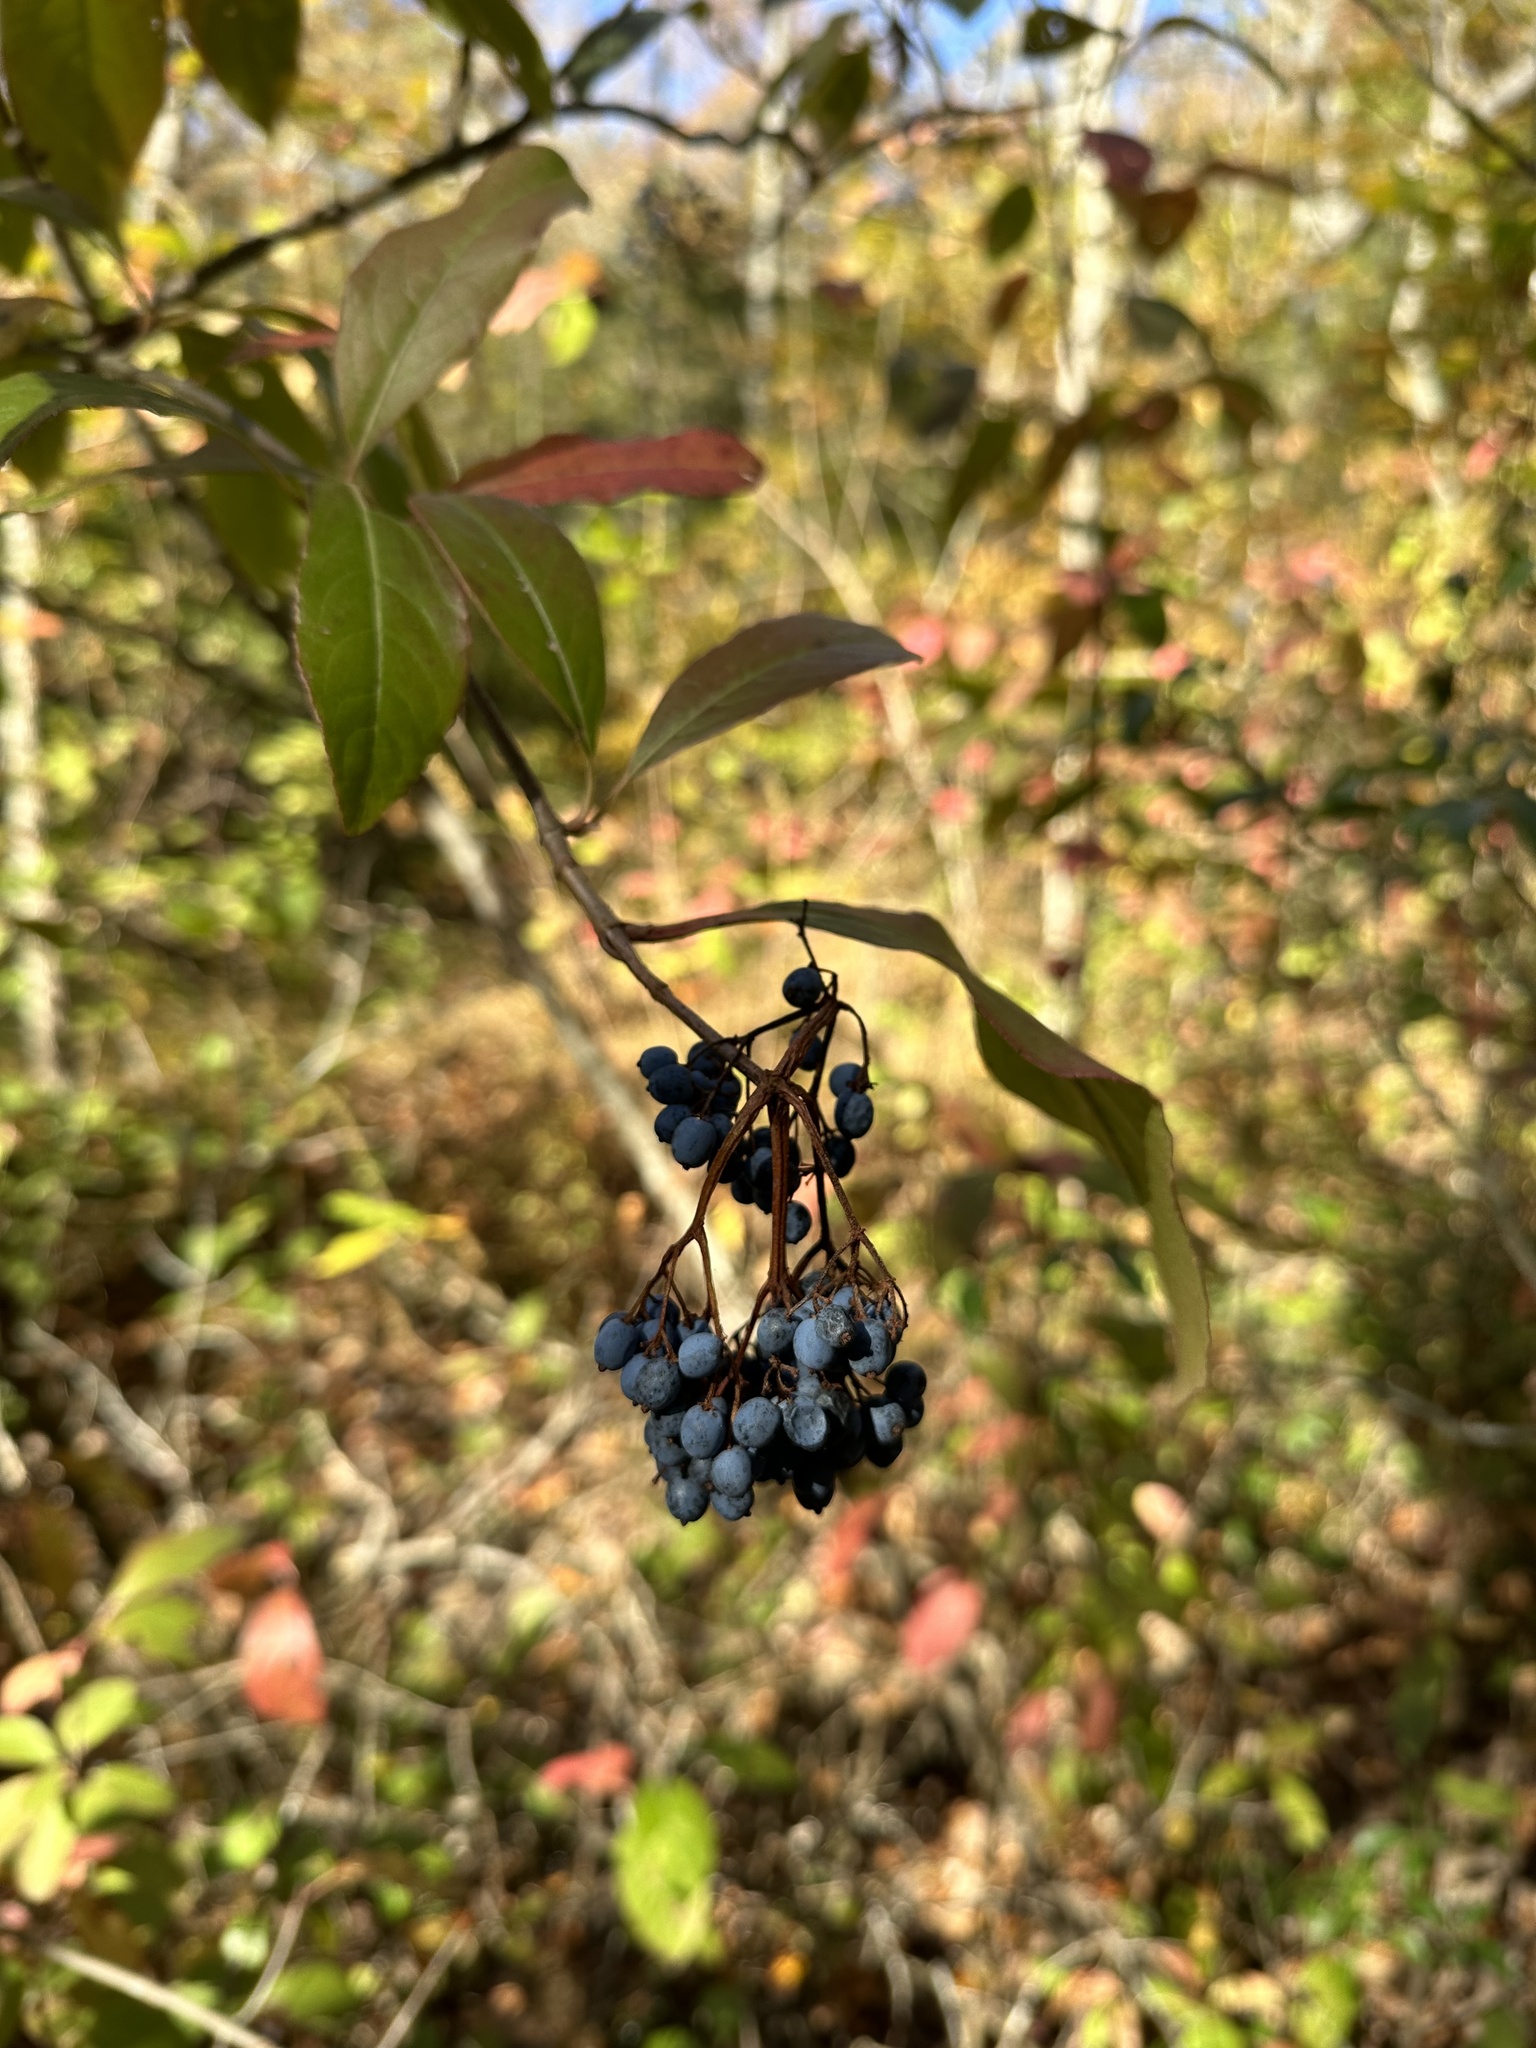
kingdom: Plantae
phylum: Tracheophyta
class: Magnoliopsida
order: Dipsacales
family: Viburnaceae
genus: Viburnum
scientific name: Viburnum prunifolium
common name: Black haw
